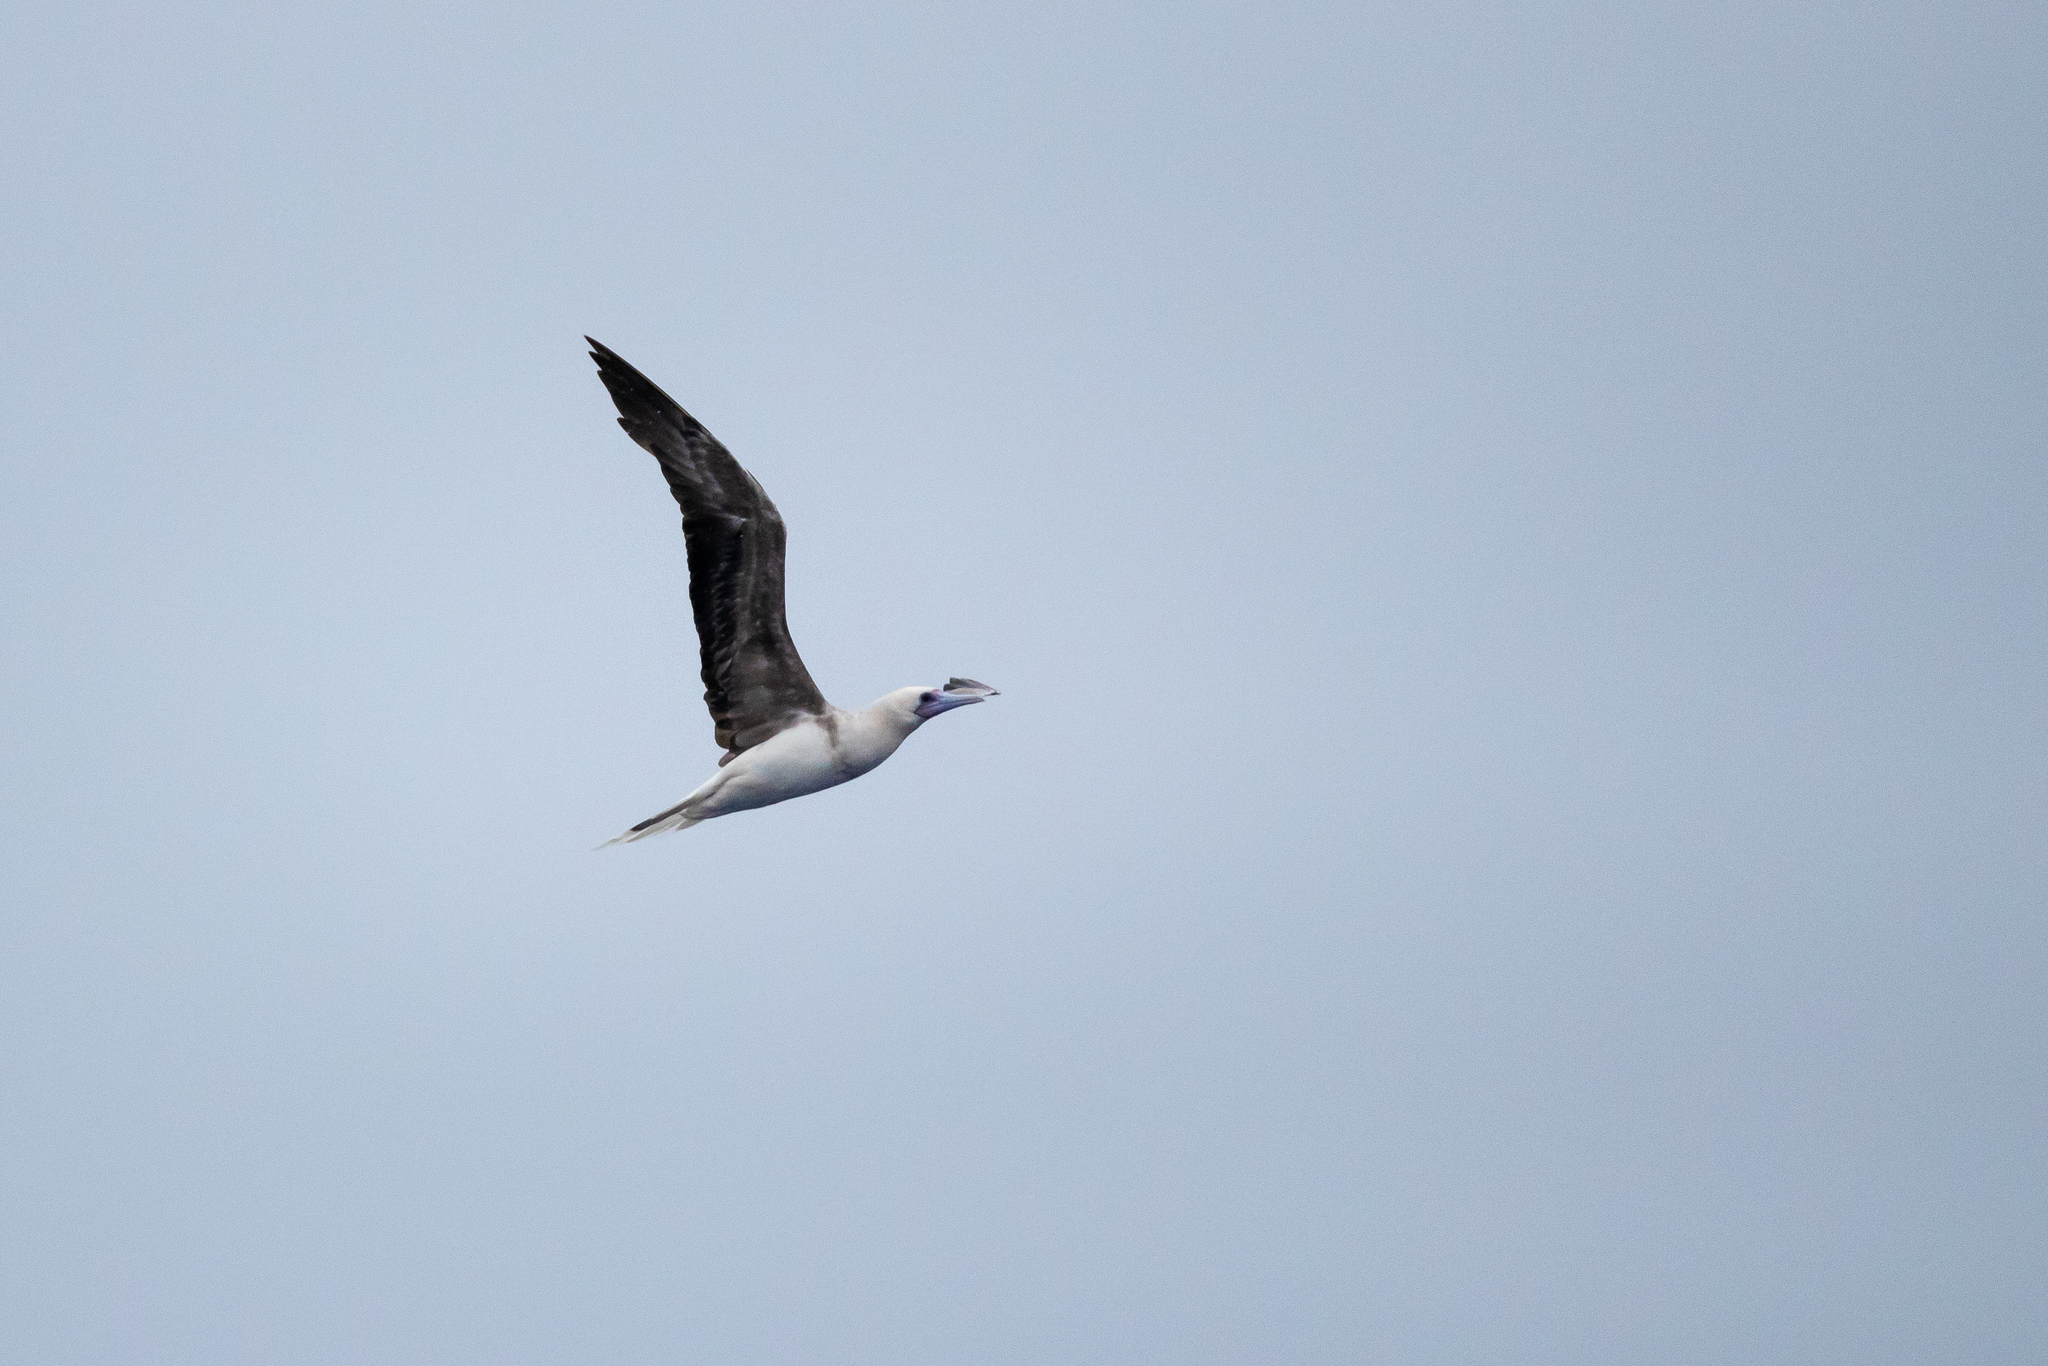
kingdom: Animalia
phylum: Chordata
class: Aves
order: Suliformes
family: Sulidae
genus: Sula
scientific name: Sula sula
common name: Red-footed booby
